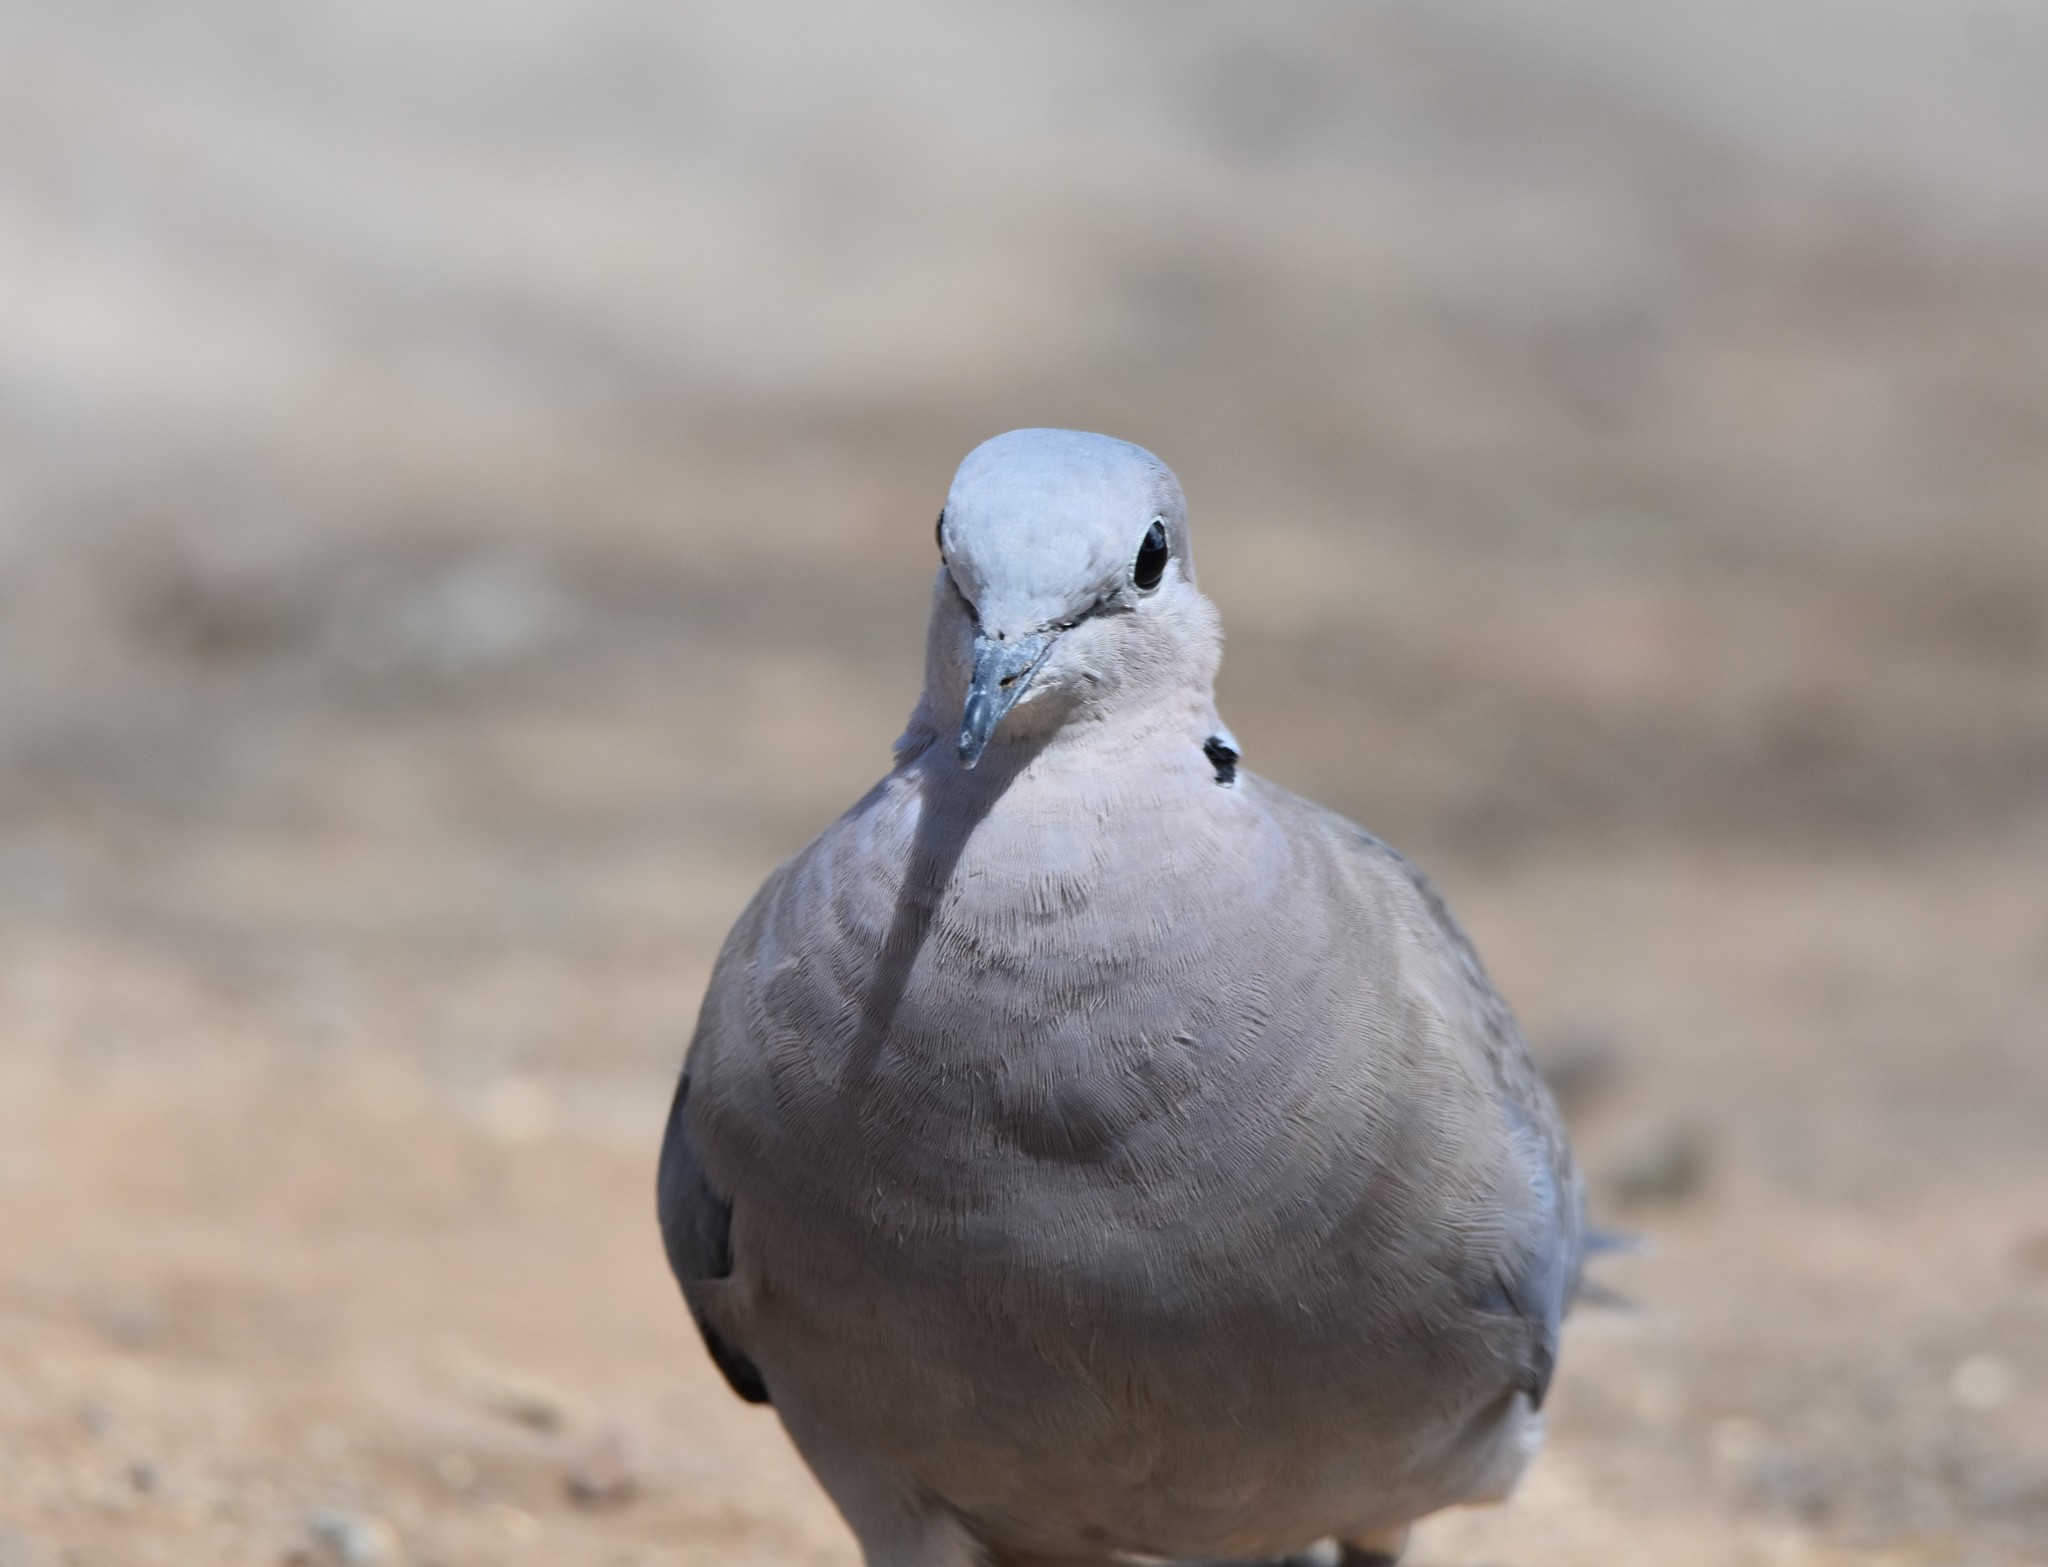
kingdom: Animalia
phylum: Chordata
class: Aves
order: Columbiformes
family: Columbidae
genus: Streptopelia
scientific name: Streptopelia capicola
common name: Ring-necked dove
